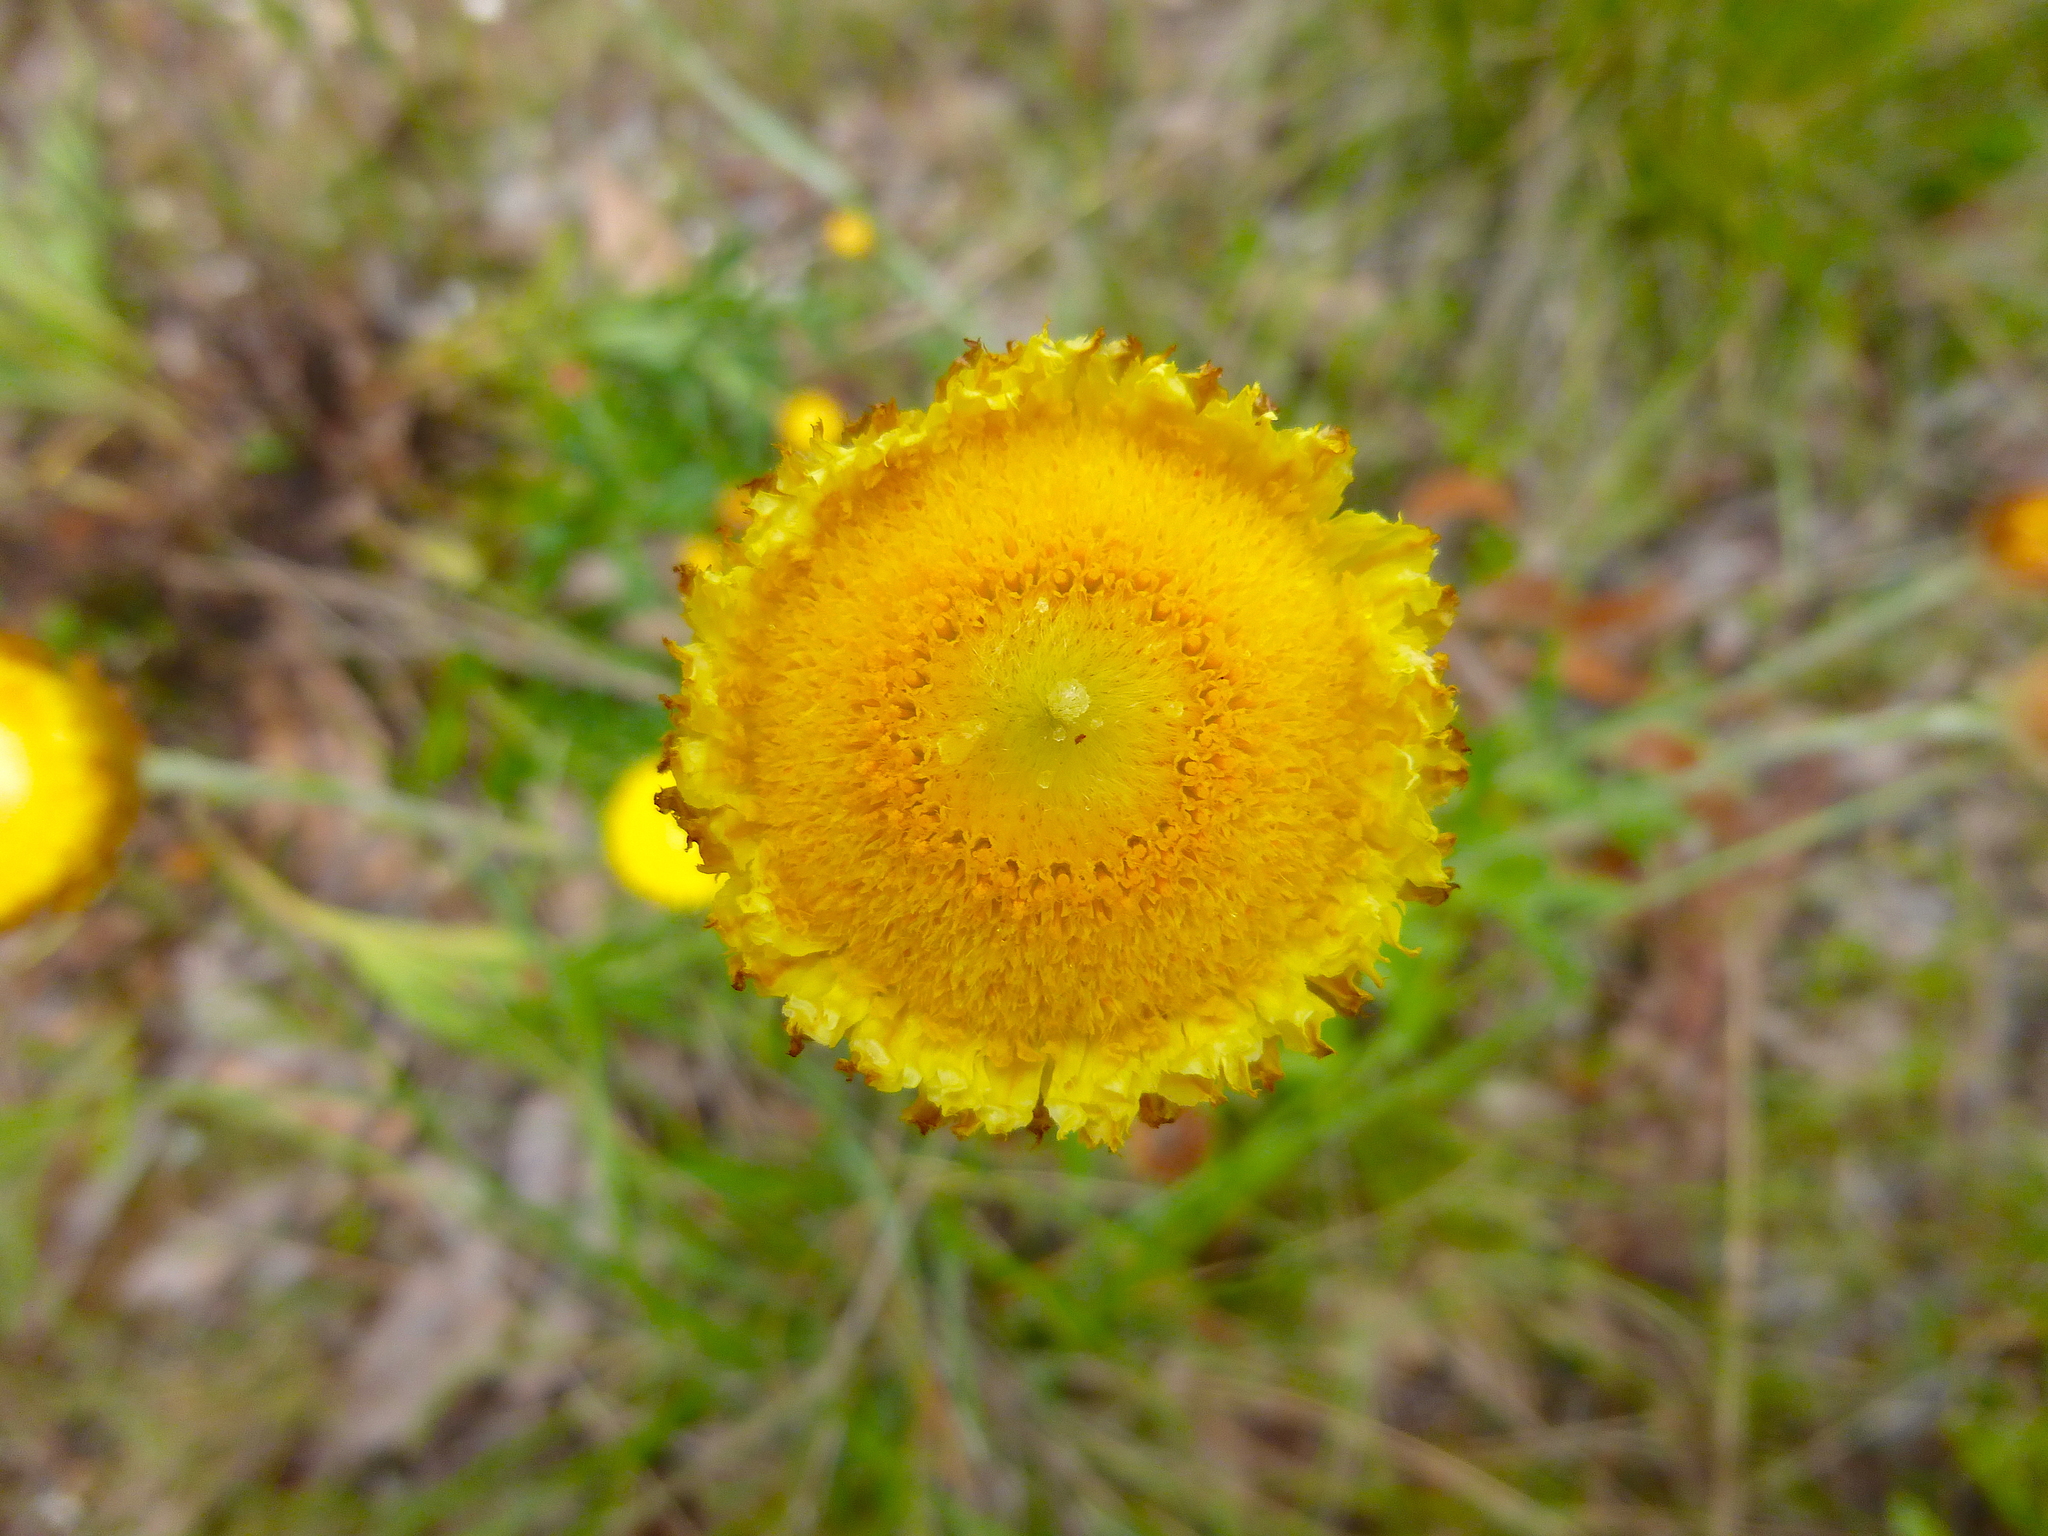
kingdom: Plantae
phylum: Tracheophyta
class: Magnoliopsida
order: Asterales
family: Asteraceae
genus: Coronidium
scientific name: Coronidium scorpioides
